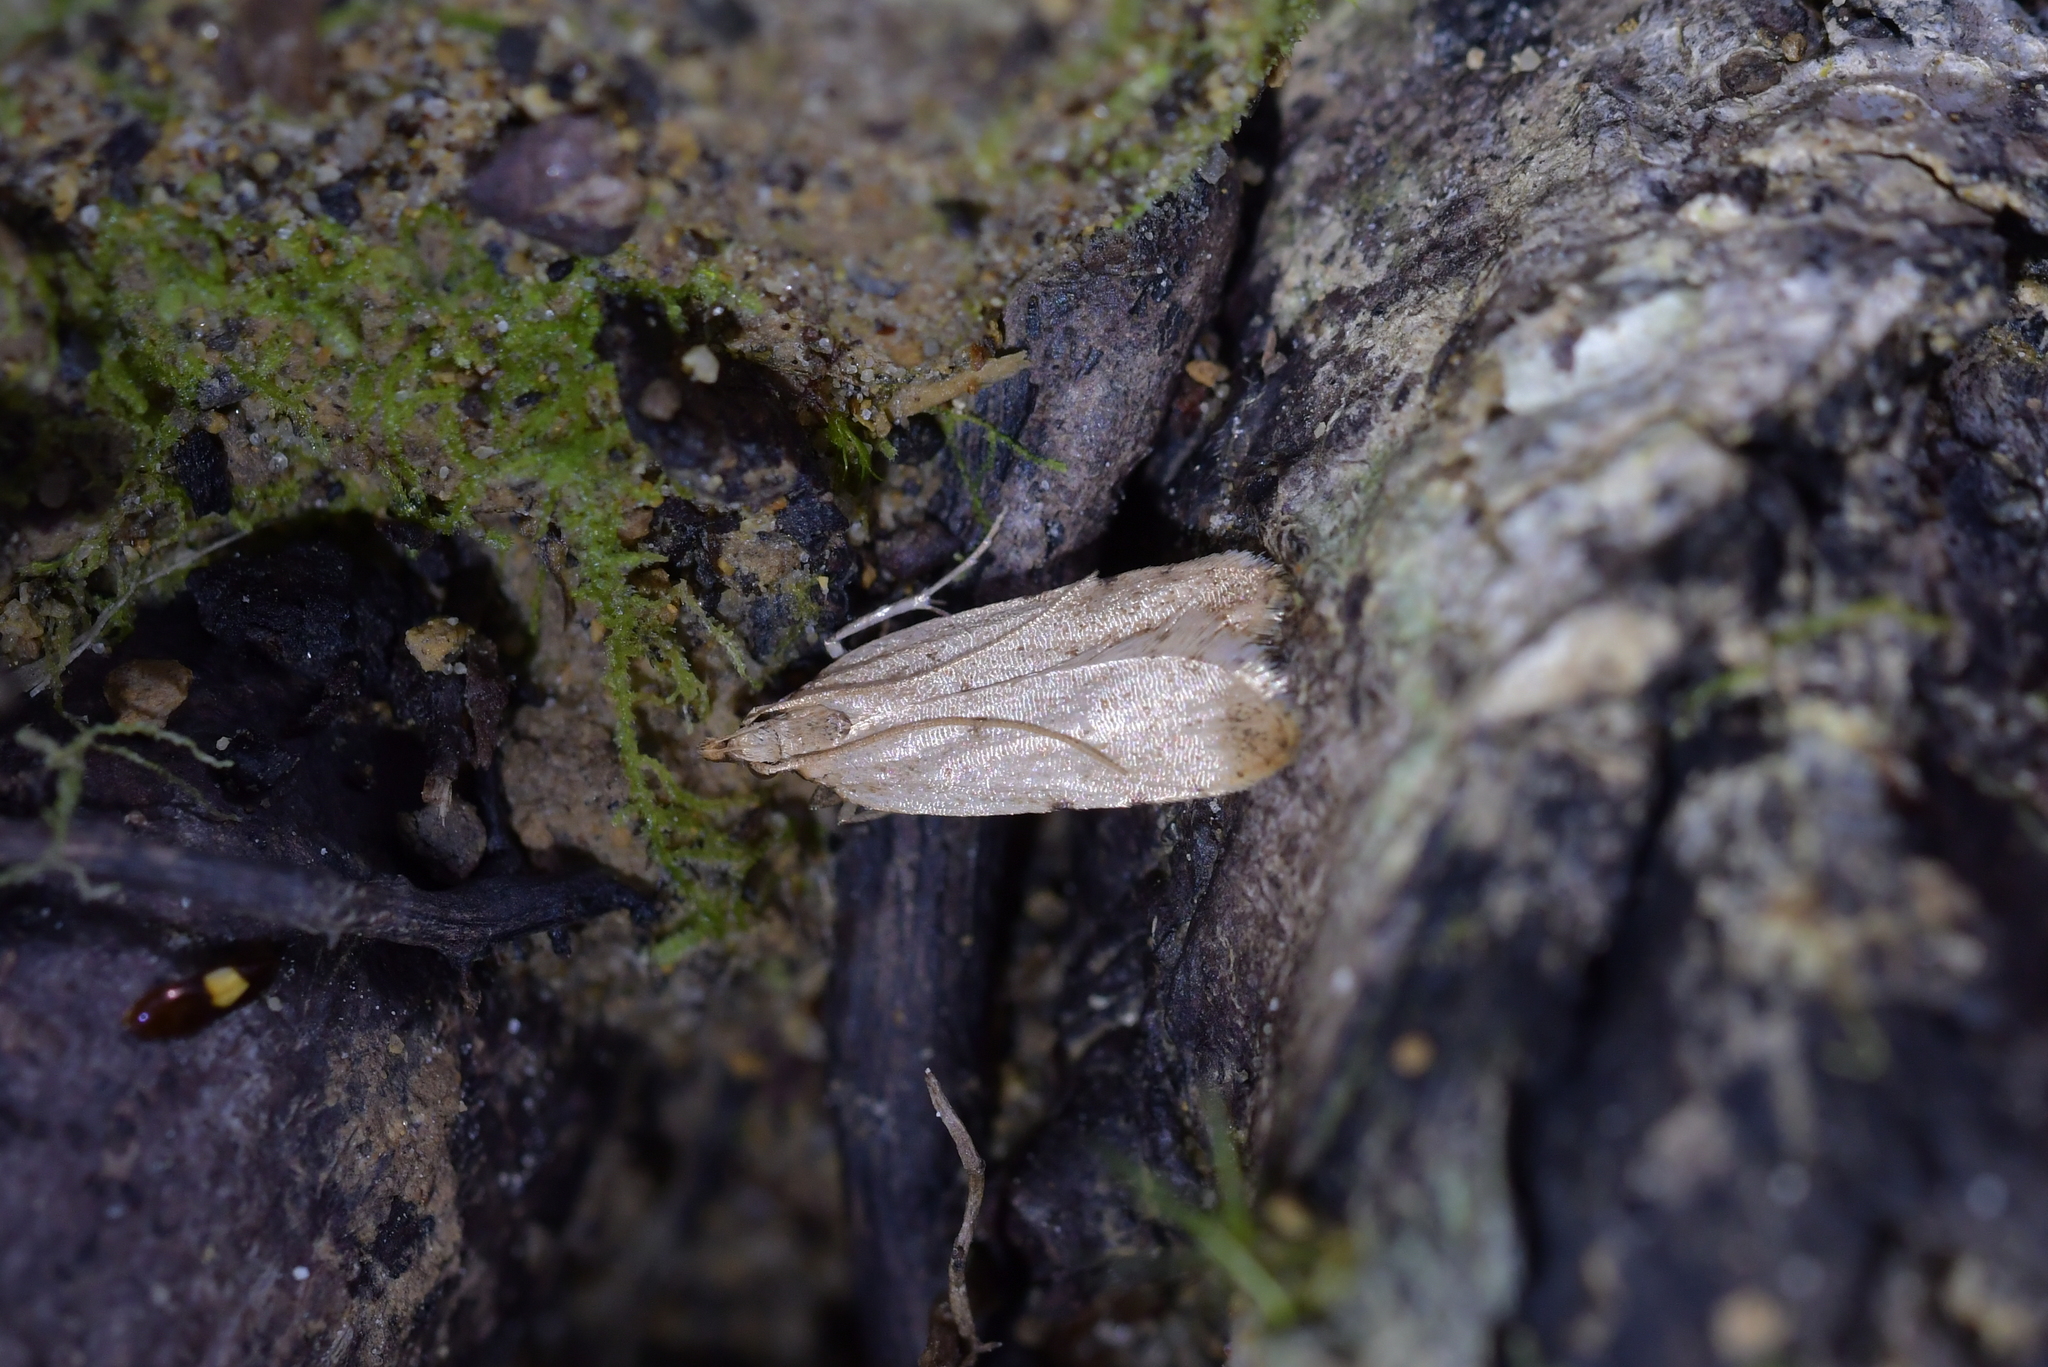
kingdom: Animalia
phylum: Arthropoda
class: Insecta
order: Lepidoptera
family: Oecophoridae
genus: Gymnobathra
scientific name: Gymnobathra calliploca
